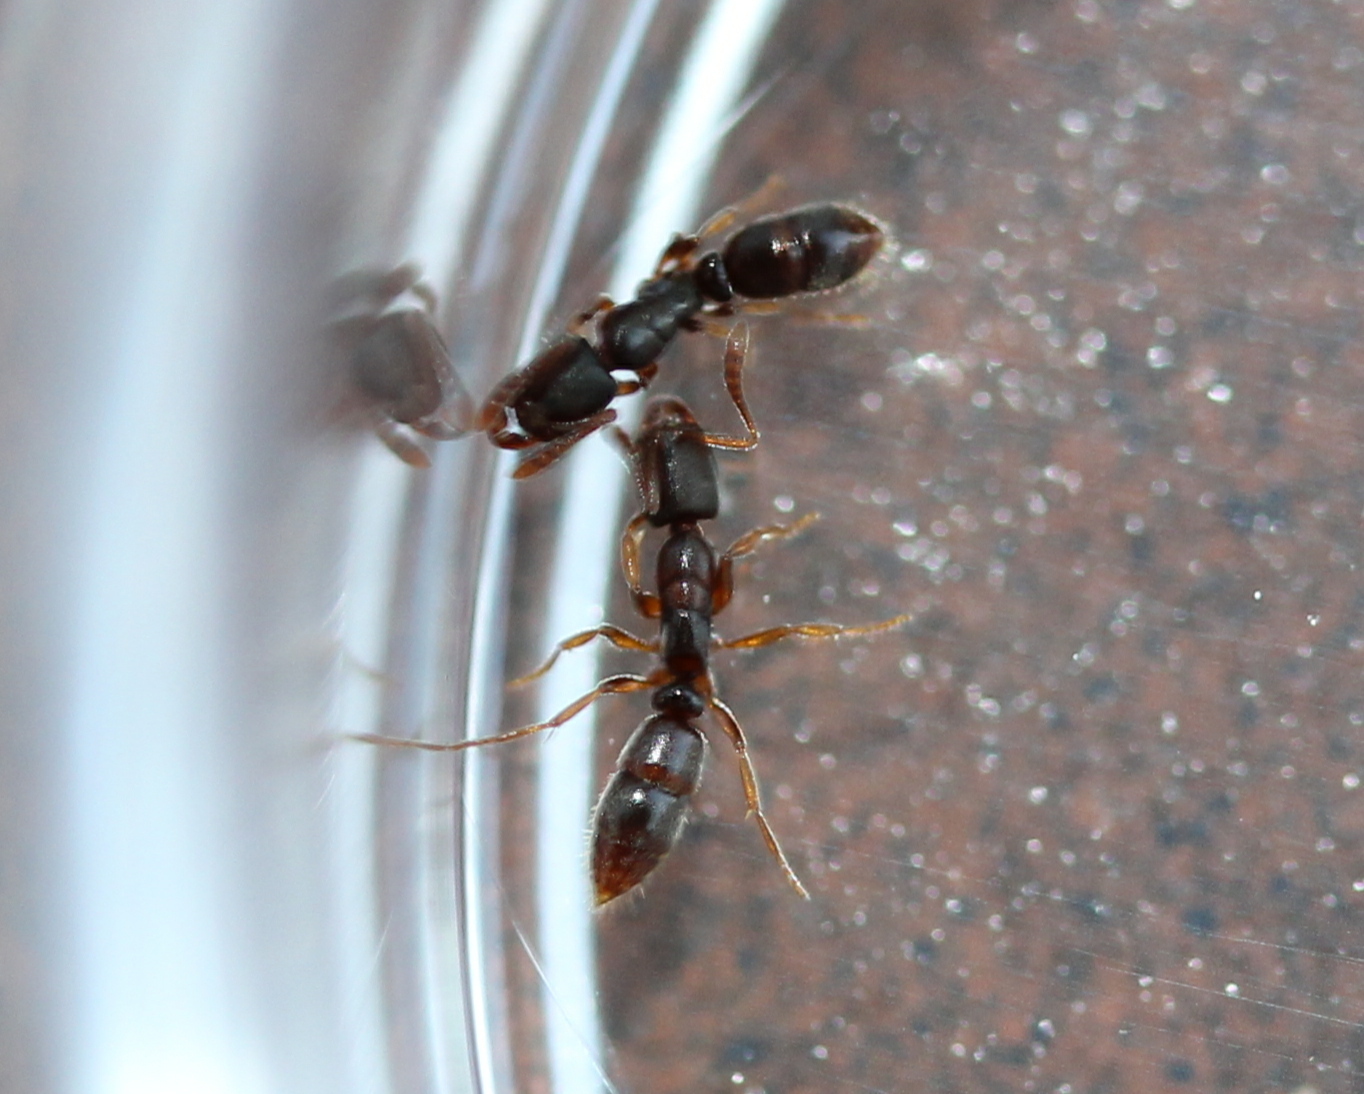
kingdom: Animalia
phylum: Arthropoda
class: Insecta
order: Hymenoptera
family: Formicidae
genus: Ponera
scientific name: Ponera pennsylvanica
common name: Pennsylvania ponera
